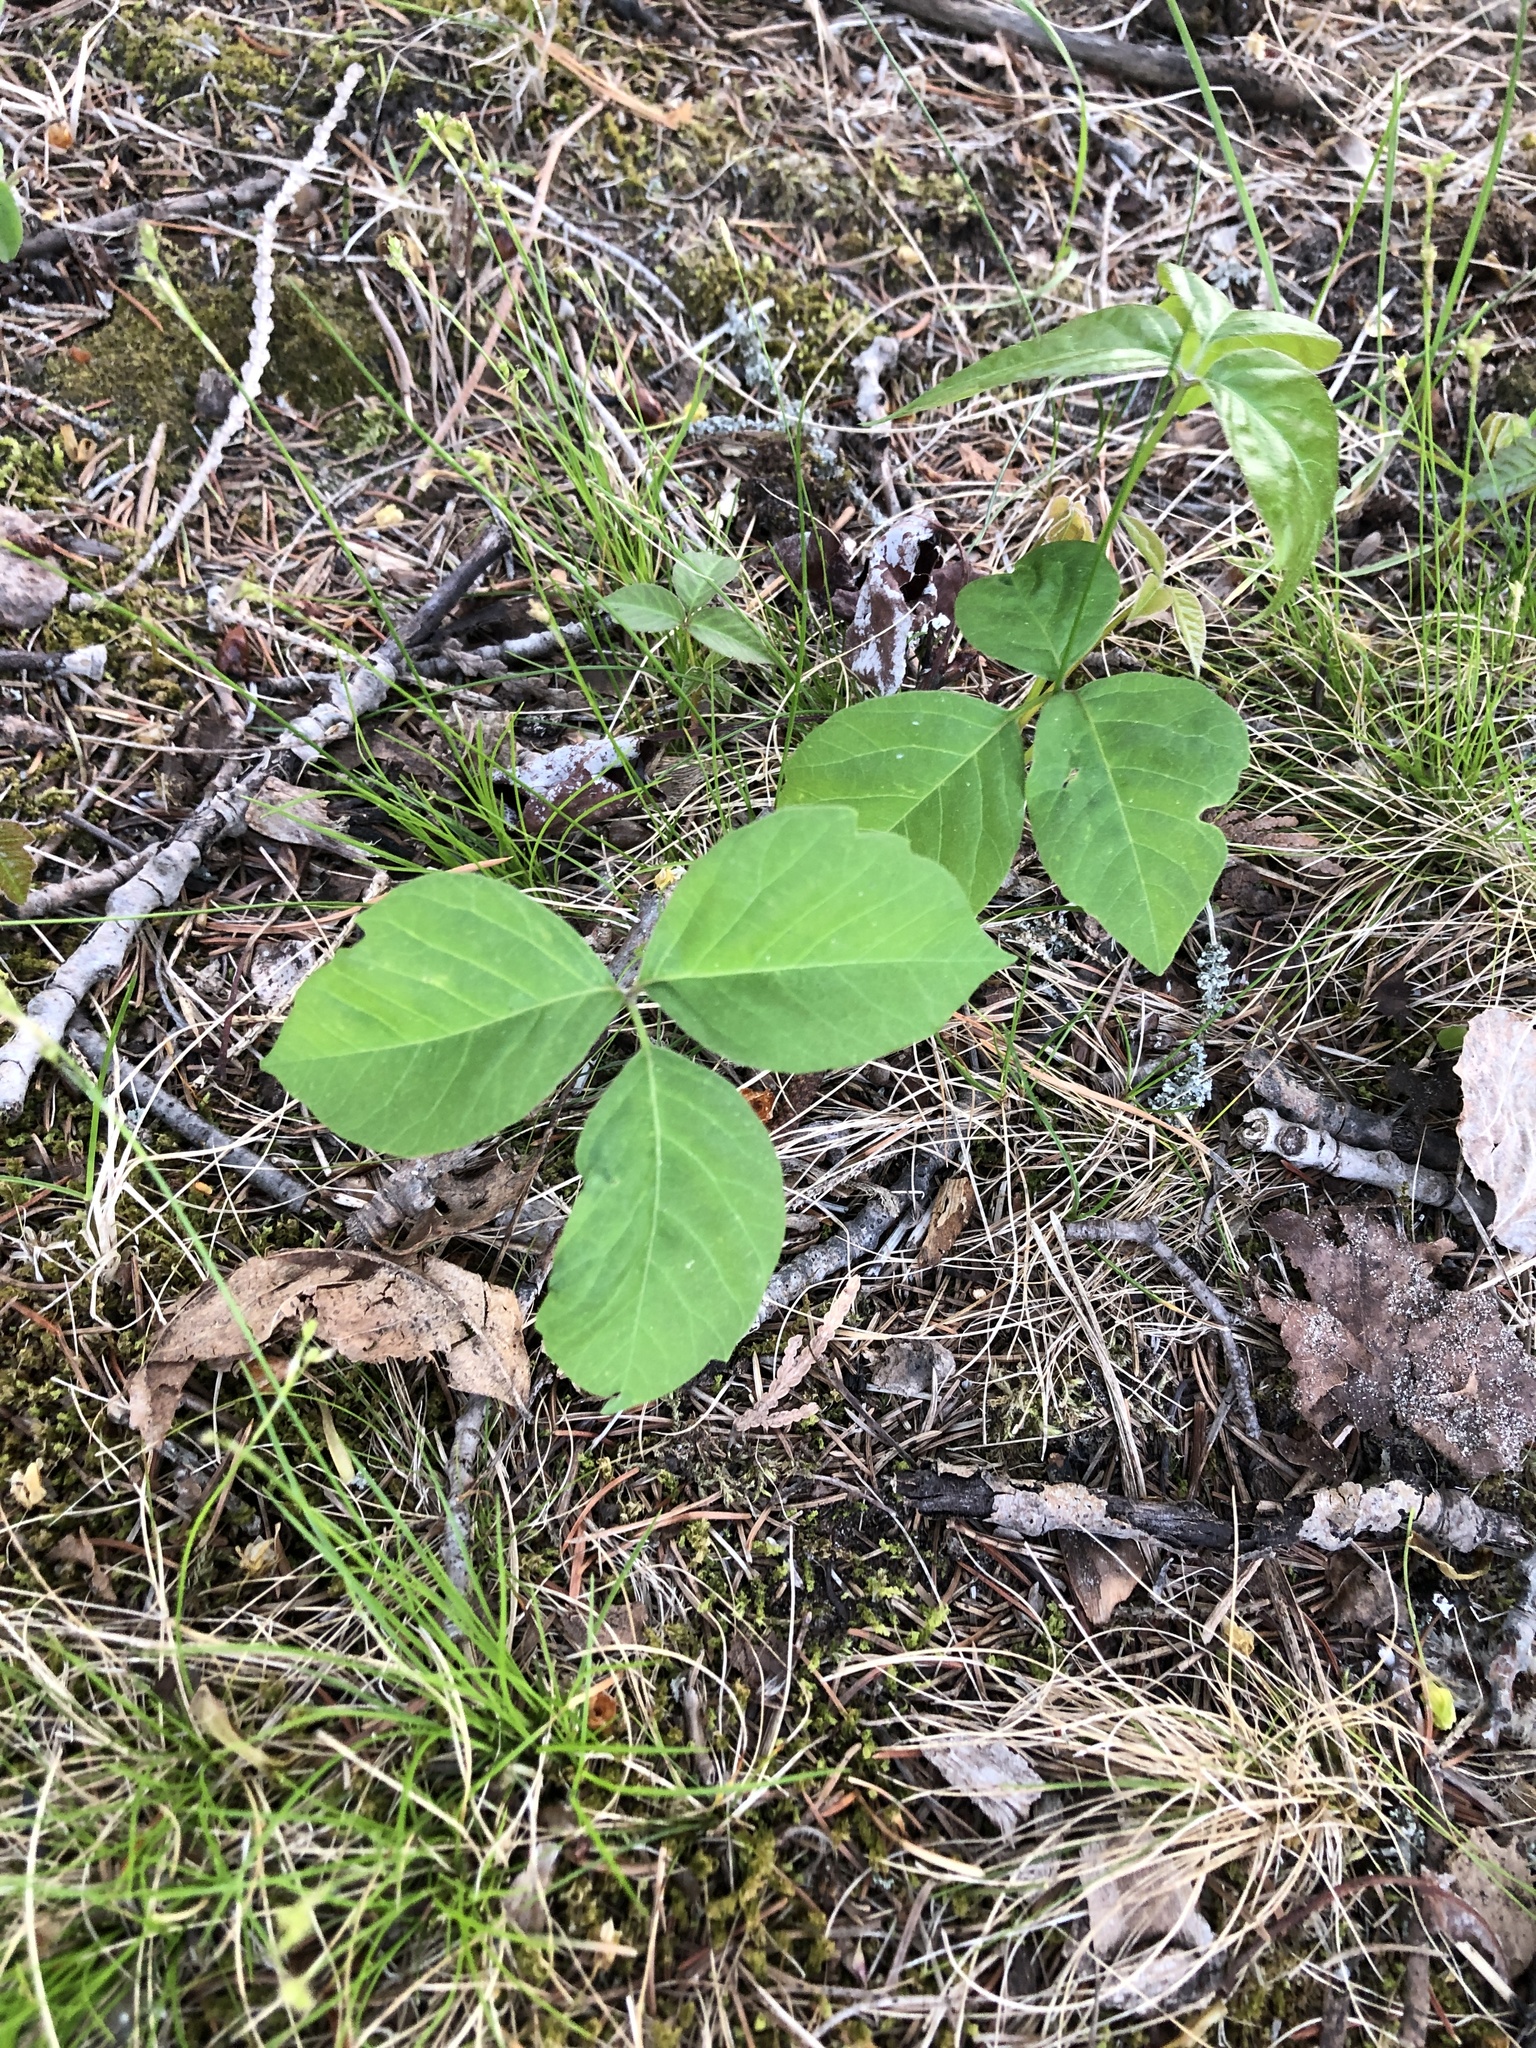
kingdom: Plantae
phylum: Tracheophyta
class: Magnoliopsida
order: Sapindales
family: Anacardiaceae
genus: Toxicodendron
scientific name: Toxicodendron rydbergii
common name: Rydberg's poison-ivy
